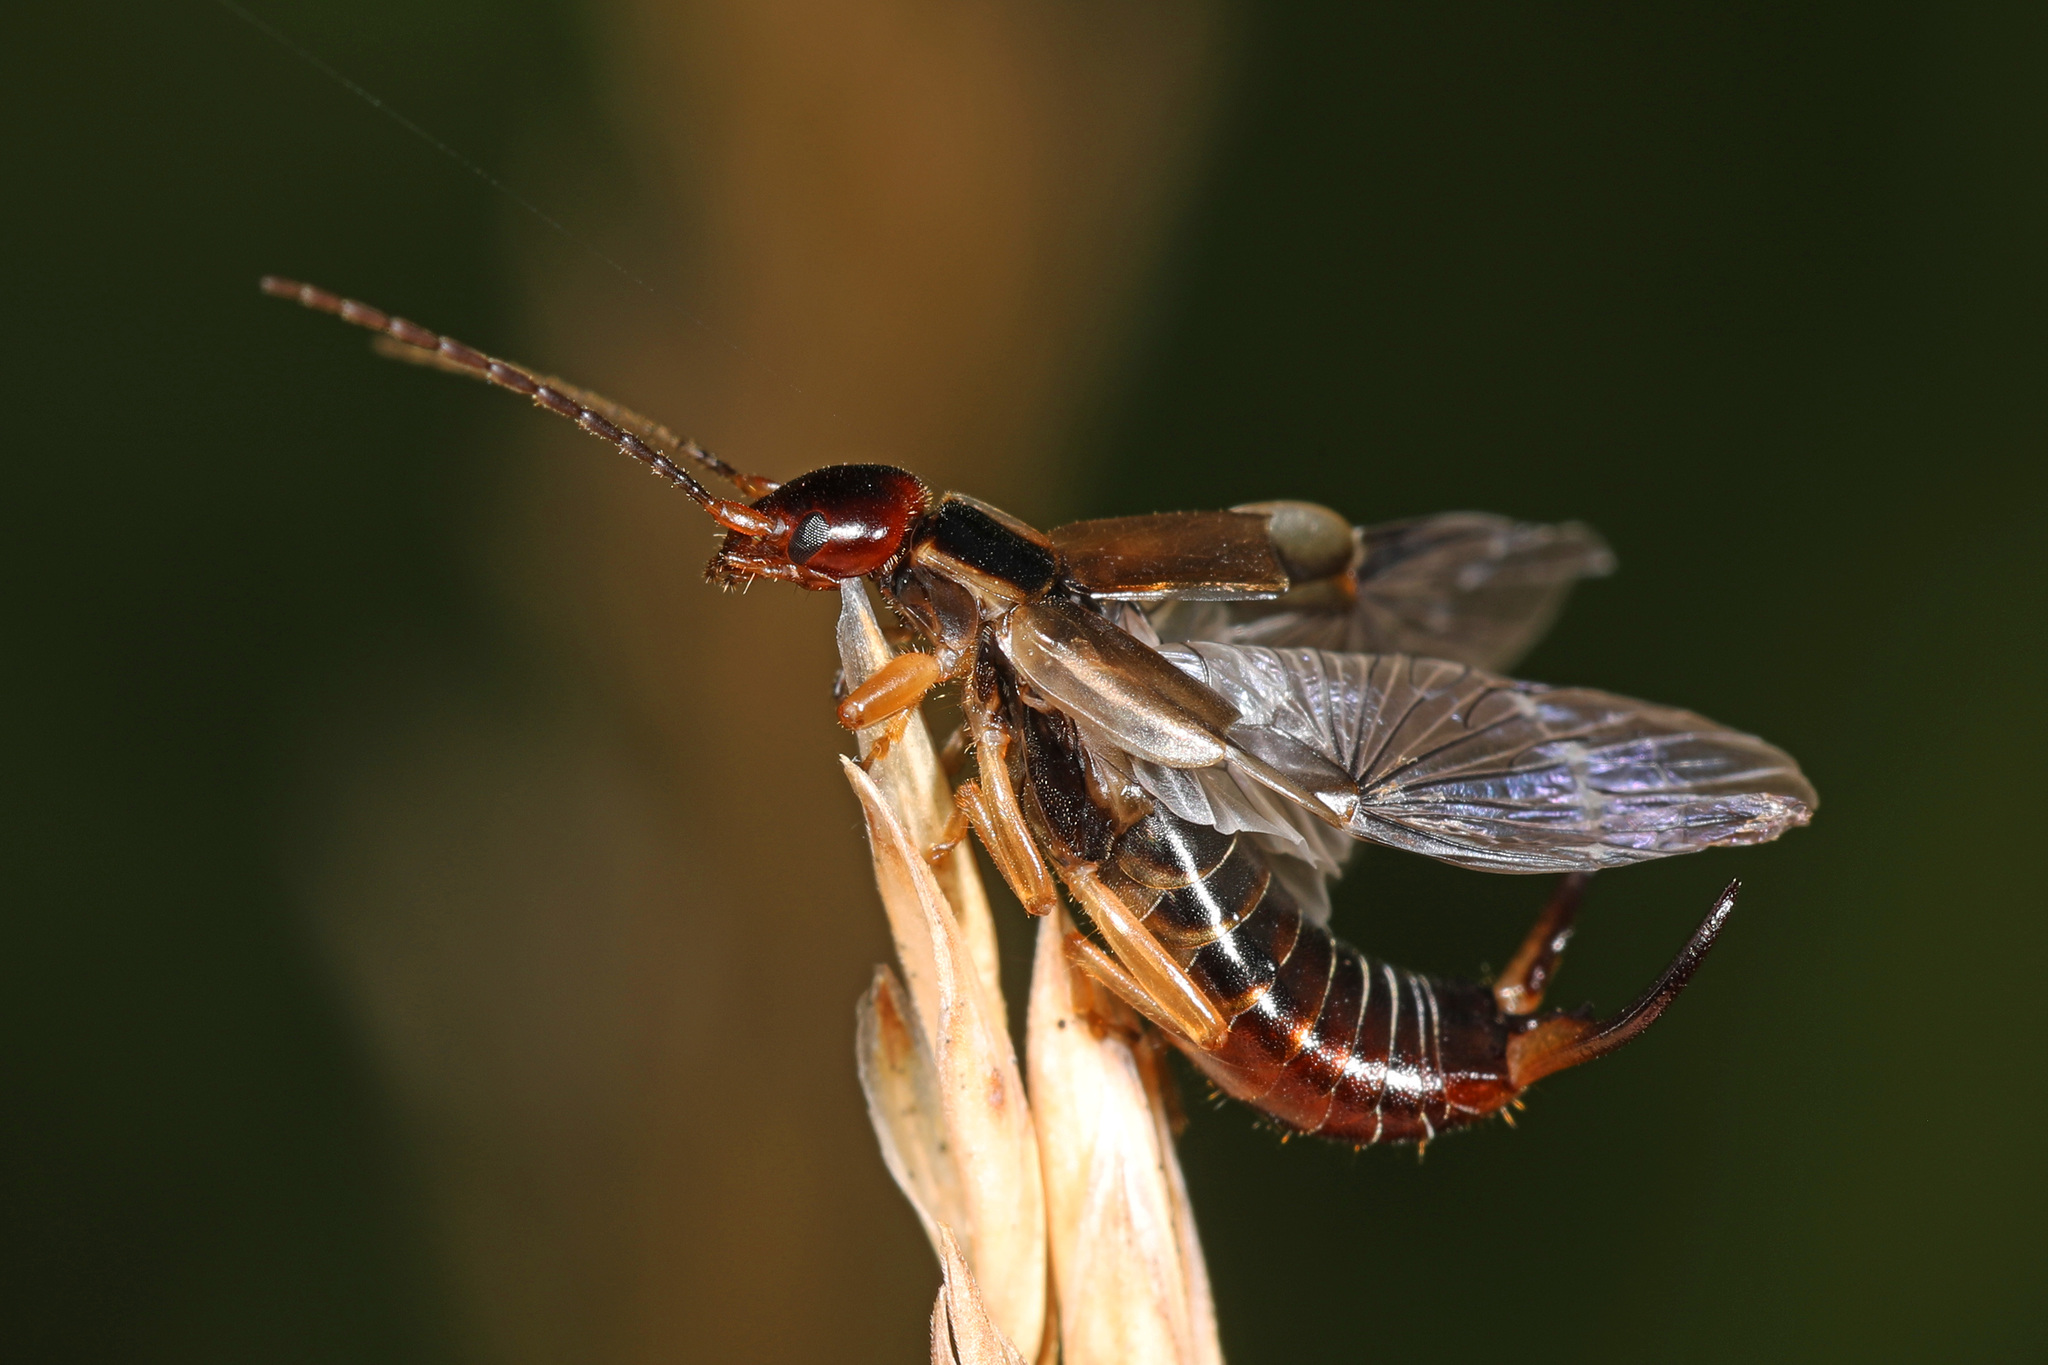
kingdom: Animalia
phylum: Arthropoda
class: Insecta
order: Dermaptera
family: Forficulidae
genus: Forficula
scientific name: Forficula
